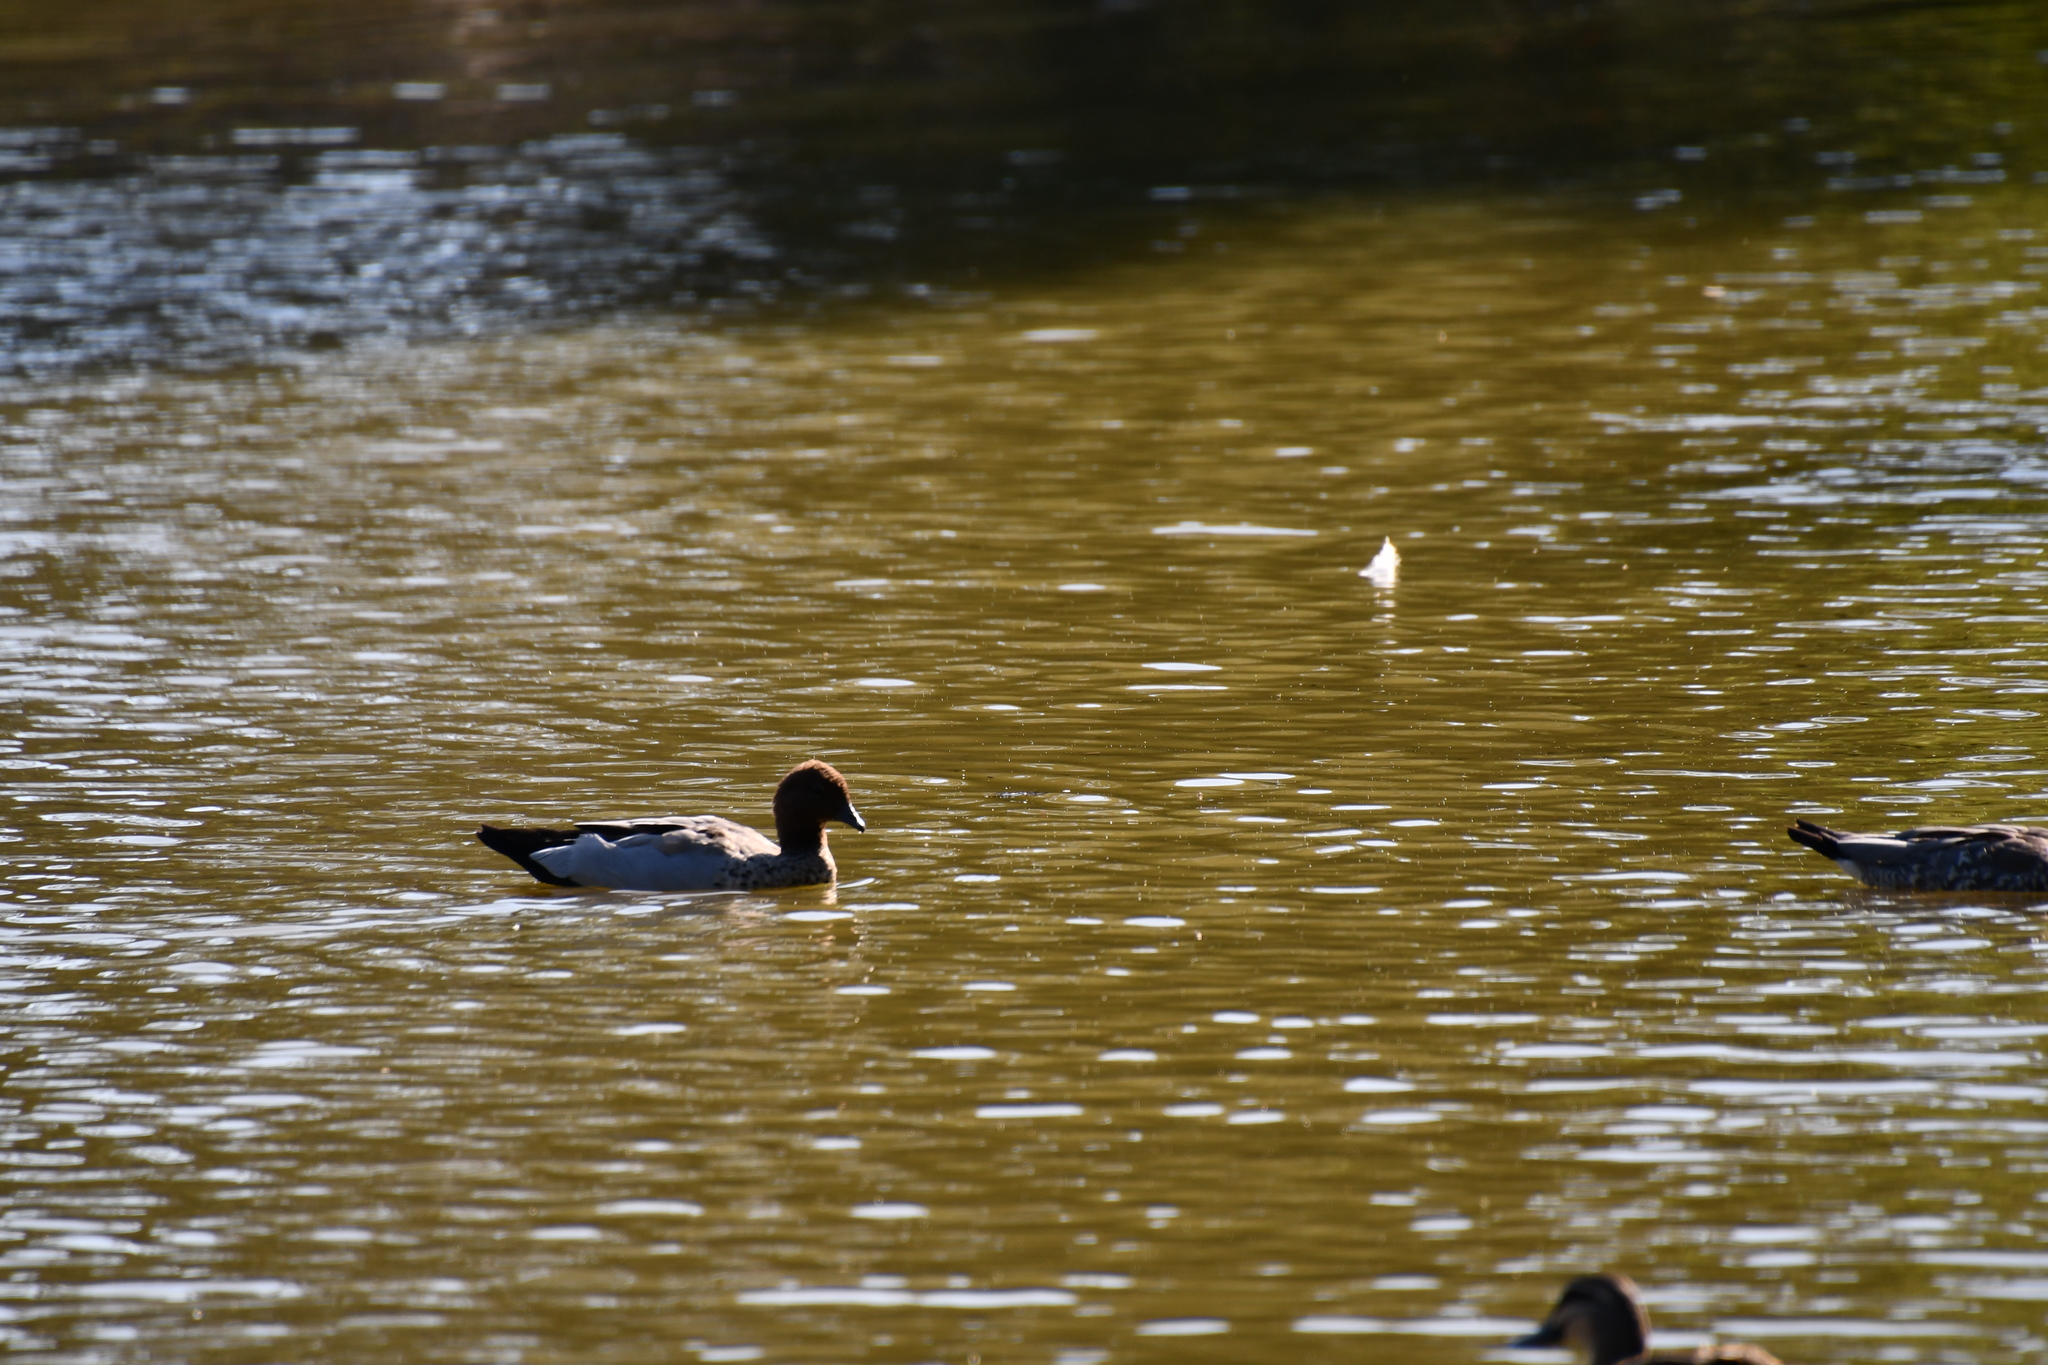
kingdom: Animalia
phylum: Chordata
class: Aves
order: Anseriformes
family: Anatidae
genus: Chenonetta
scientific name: Chenonetta jubata
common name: Maned duck
